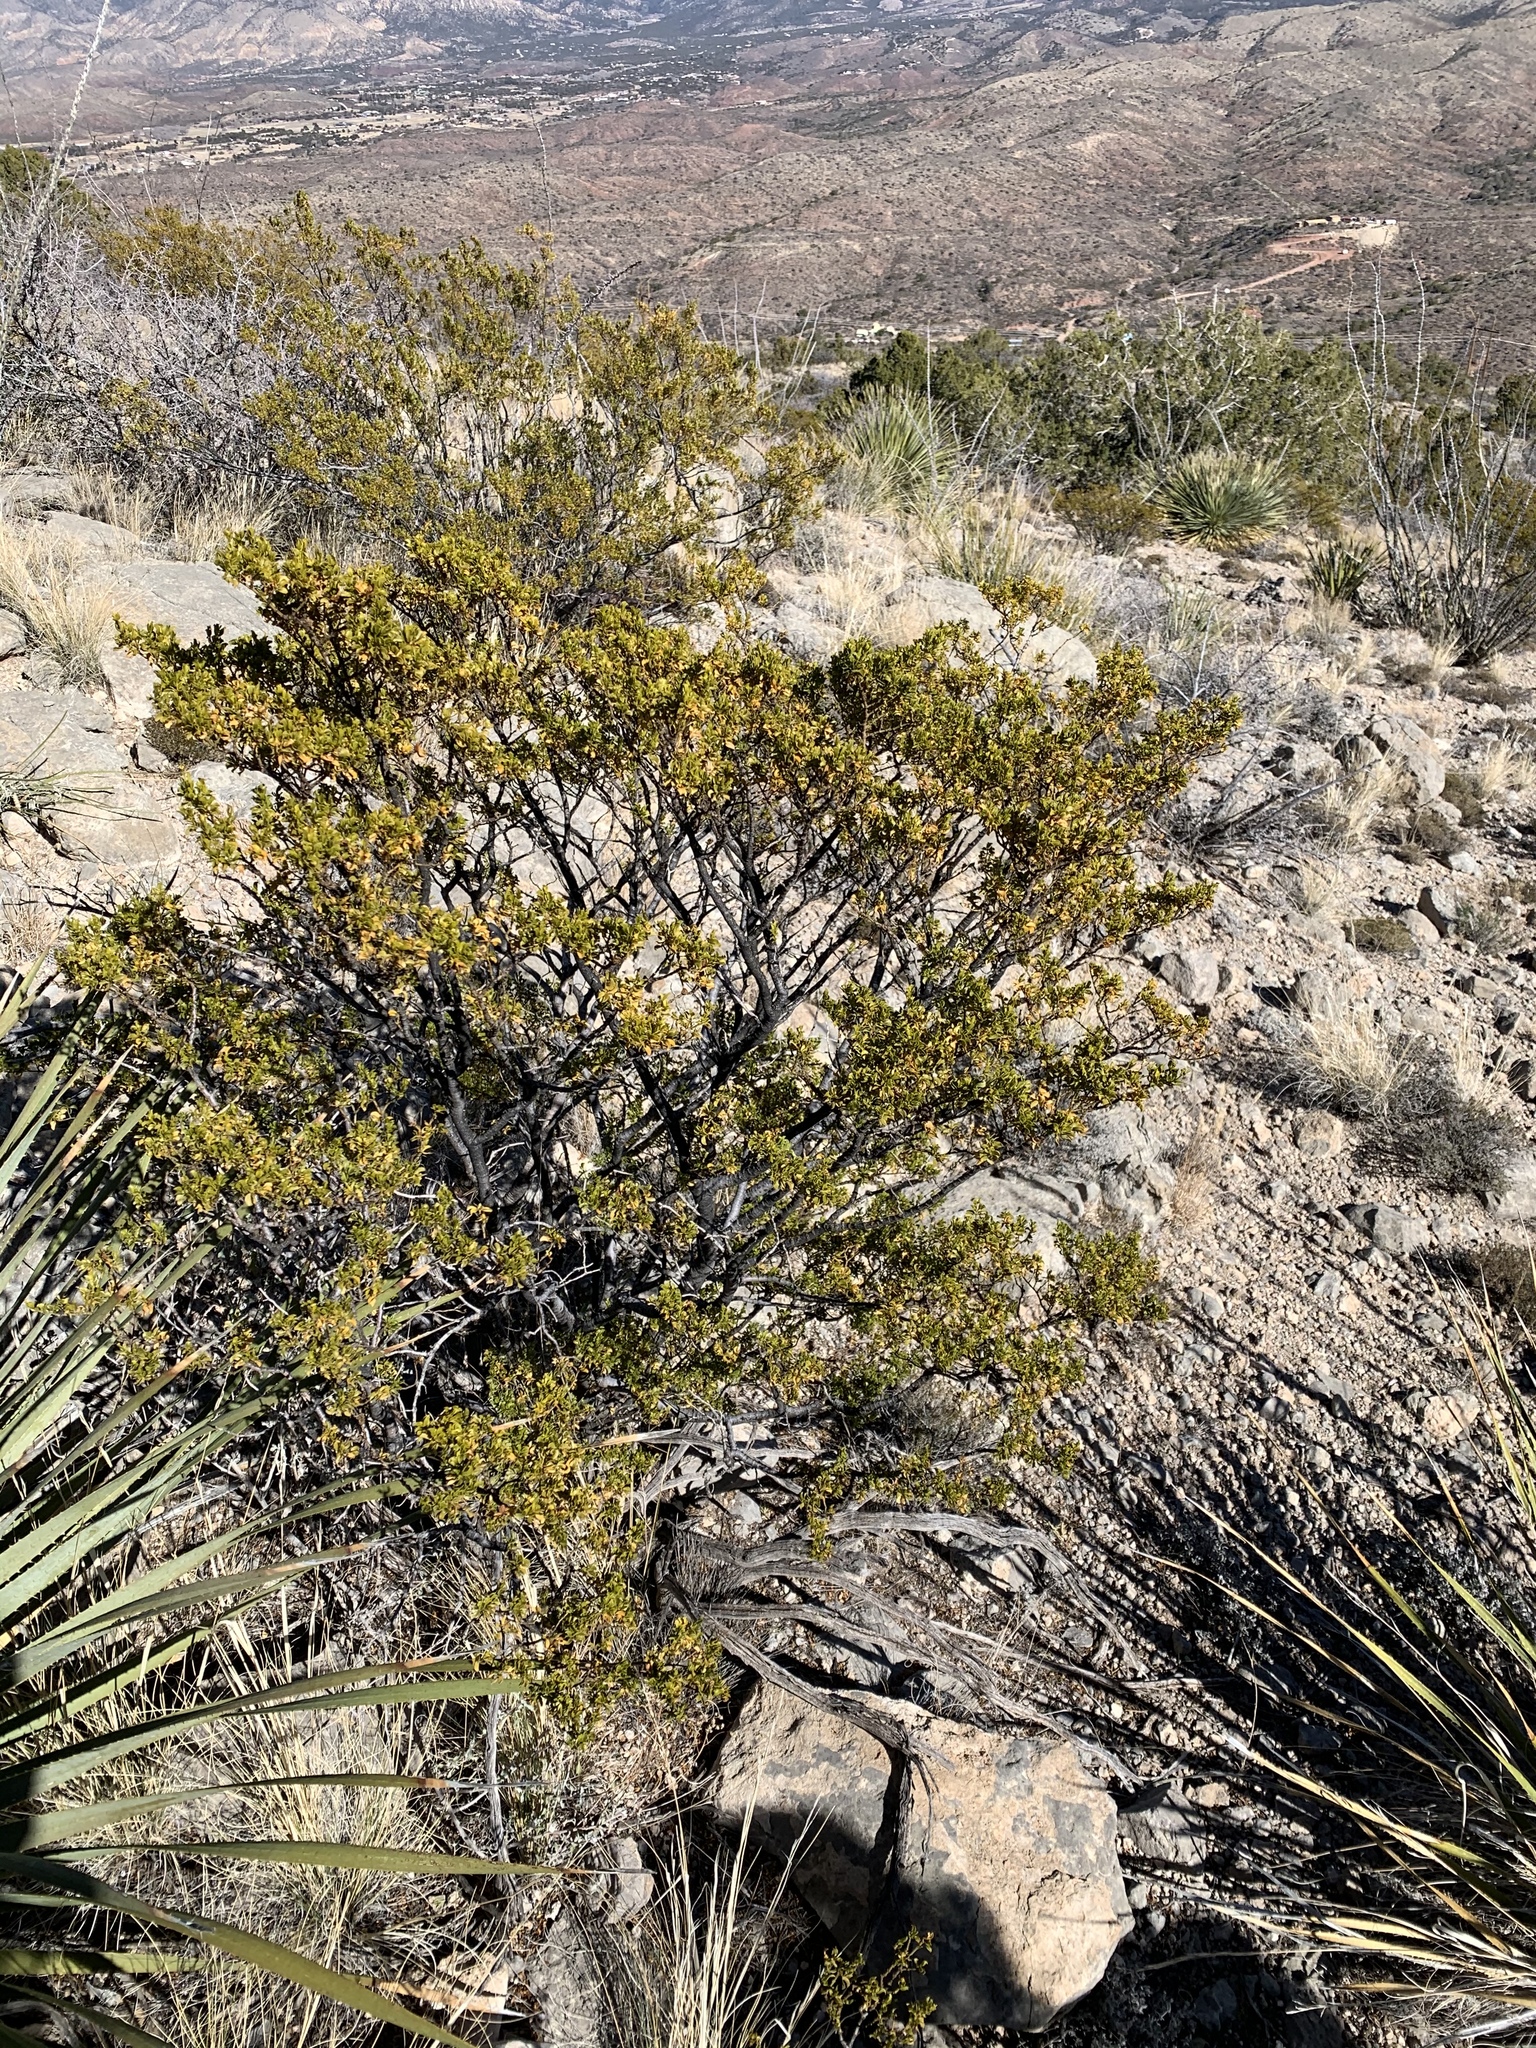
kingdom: Plantae
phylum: Tracheophyta
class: Magnoliopsida
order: Zygophyllales
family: Zygophyllaceae
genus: Larrea
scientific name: Larrea tridentata
